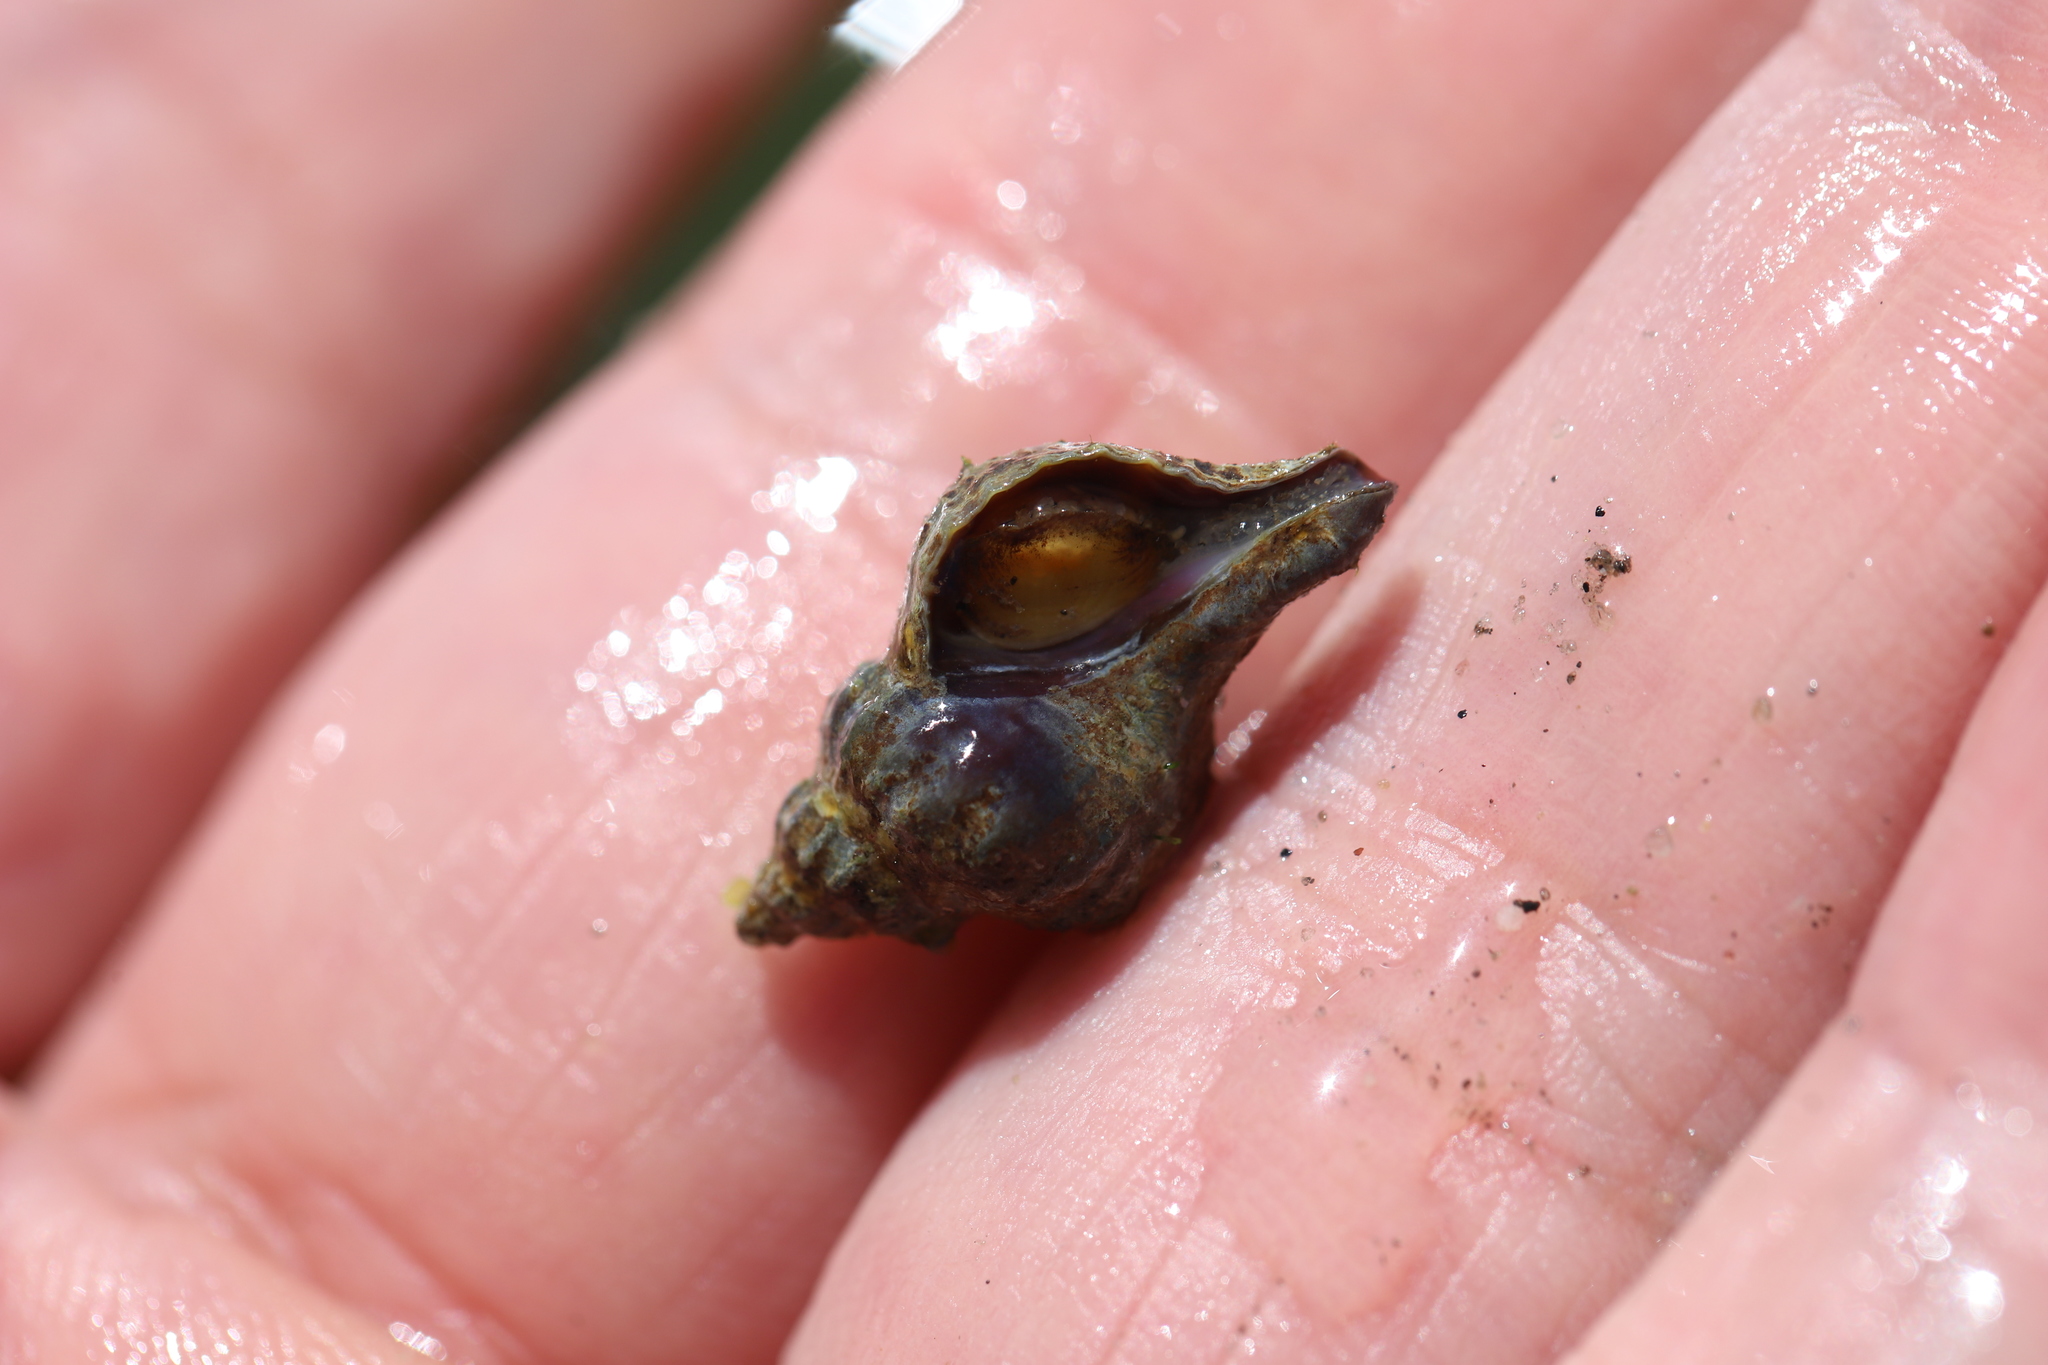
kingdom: Animalia
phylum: Mollusca
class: Gastropoda
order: Neogastropoda
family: Muricidae
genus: Urosalpinx
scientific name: Urosalpinx cinerea
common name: American sting winkle
